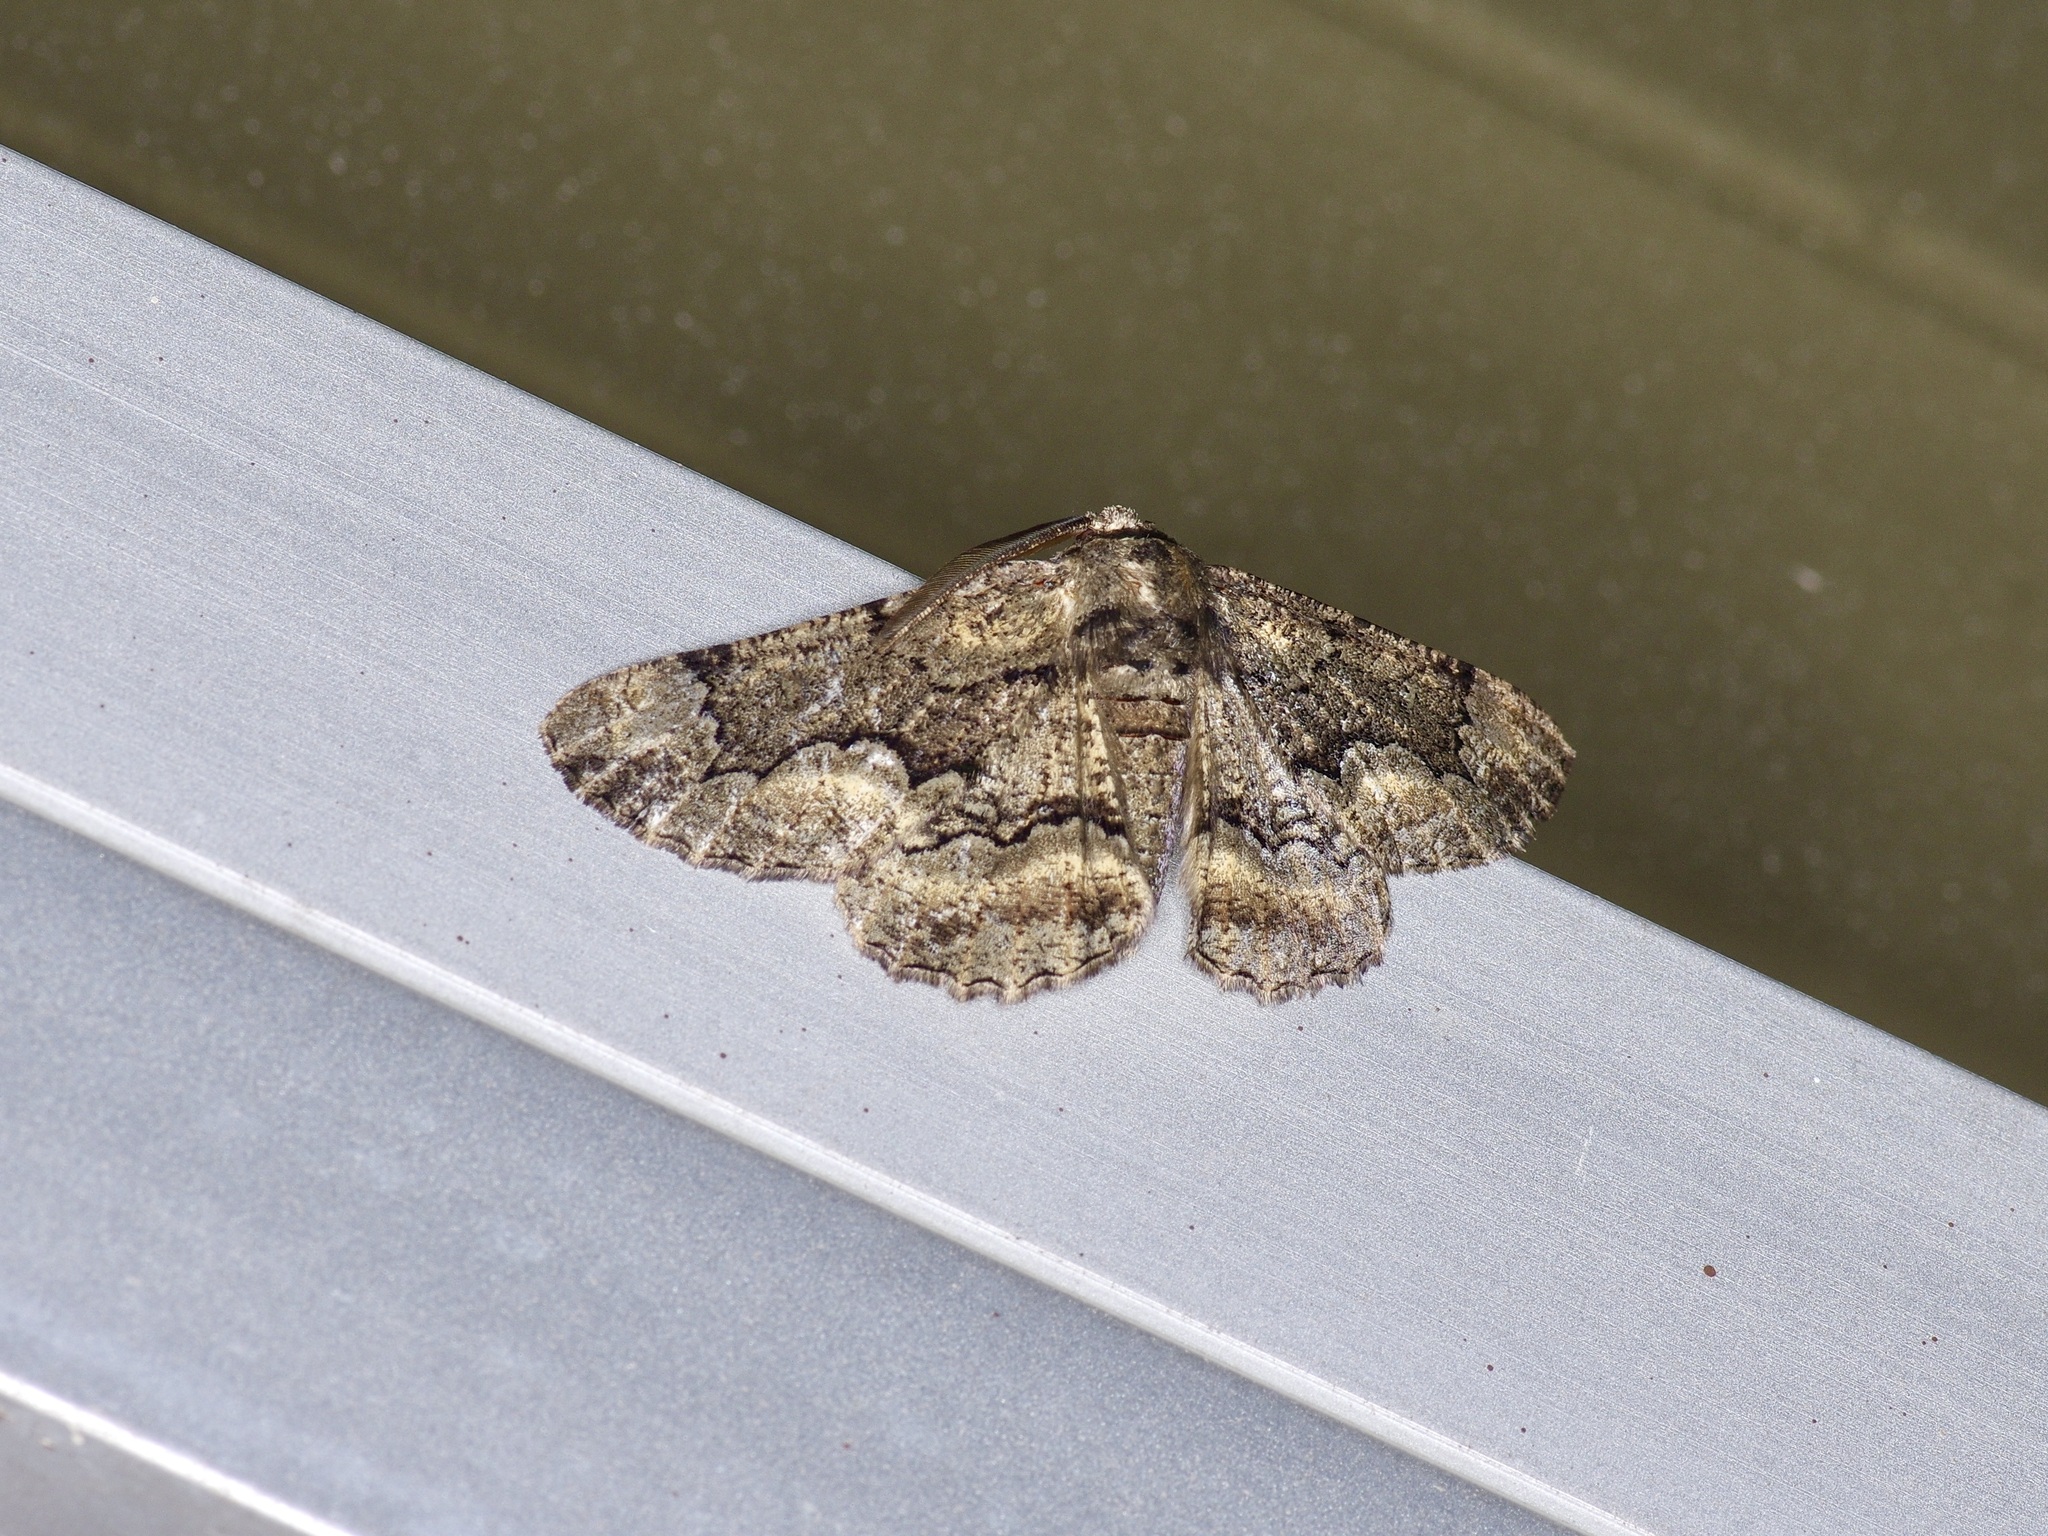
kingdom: Animalia
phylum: Arthropoda
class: Insecta
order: Lepidoptera
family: Geometridae
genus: Phaeoura
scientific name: Phaeoura quernaria
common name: Oak beauty
